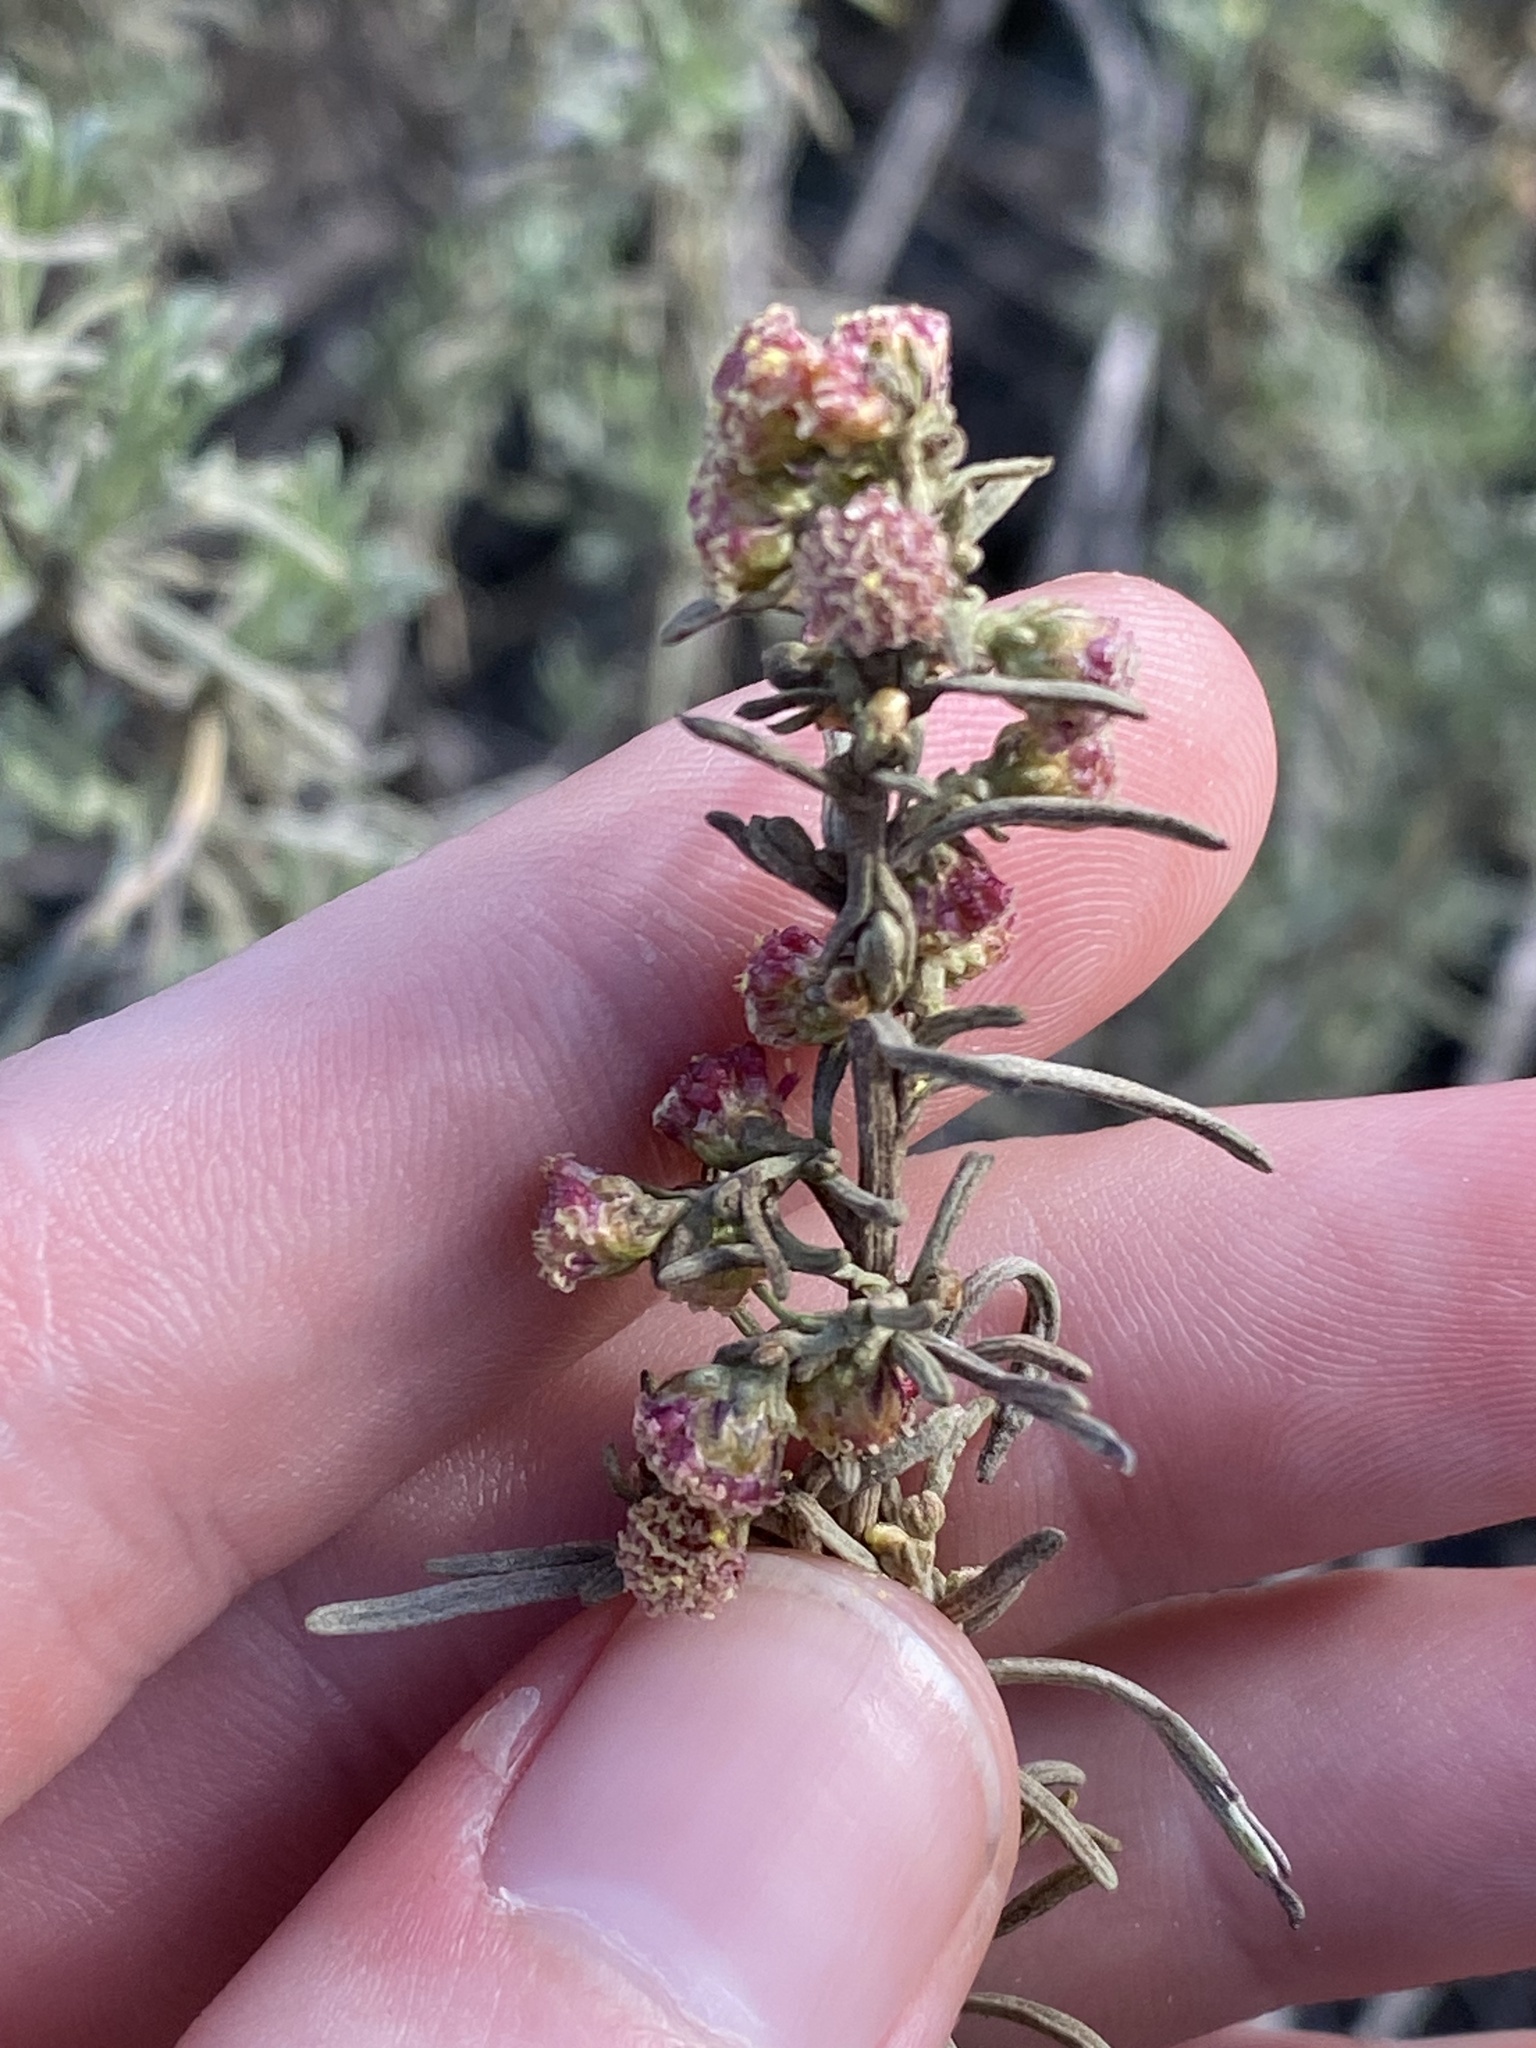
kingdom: Plantae
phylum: Tracheophyta
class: Magnoliopsida
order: Asterales
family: Asteraceae
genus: Artemisia
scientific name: Artemisia californica
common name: California sagebrush
